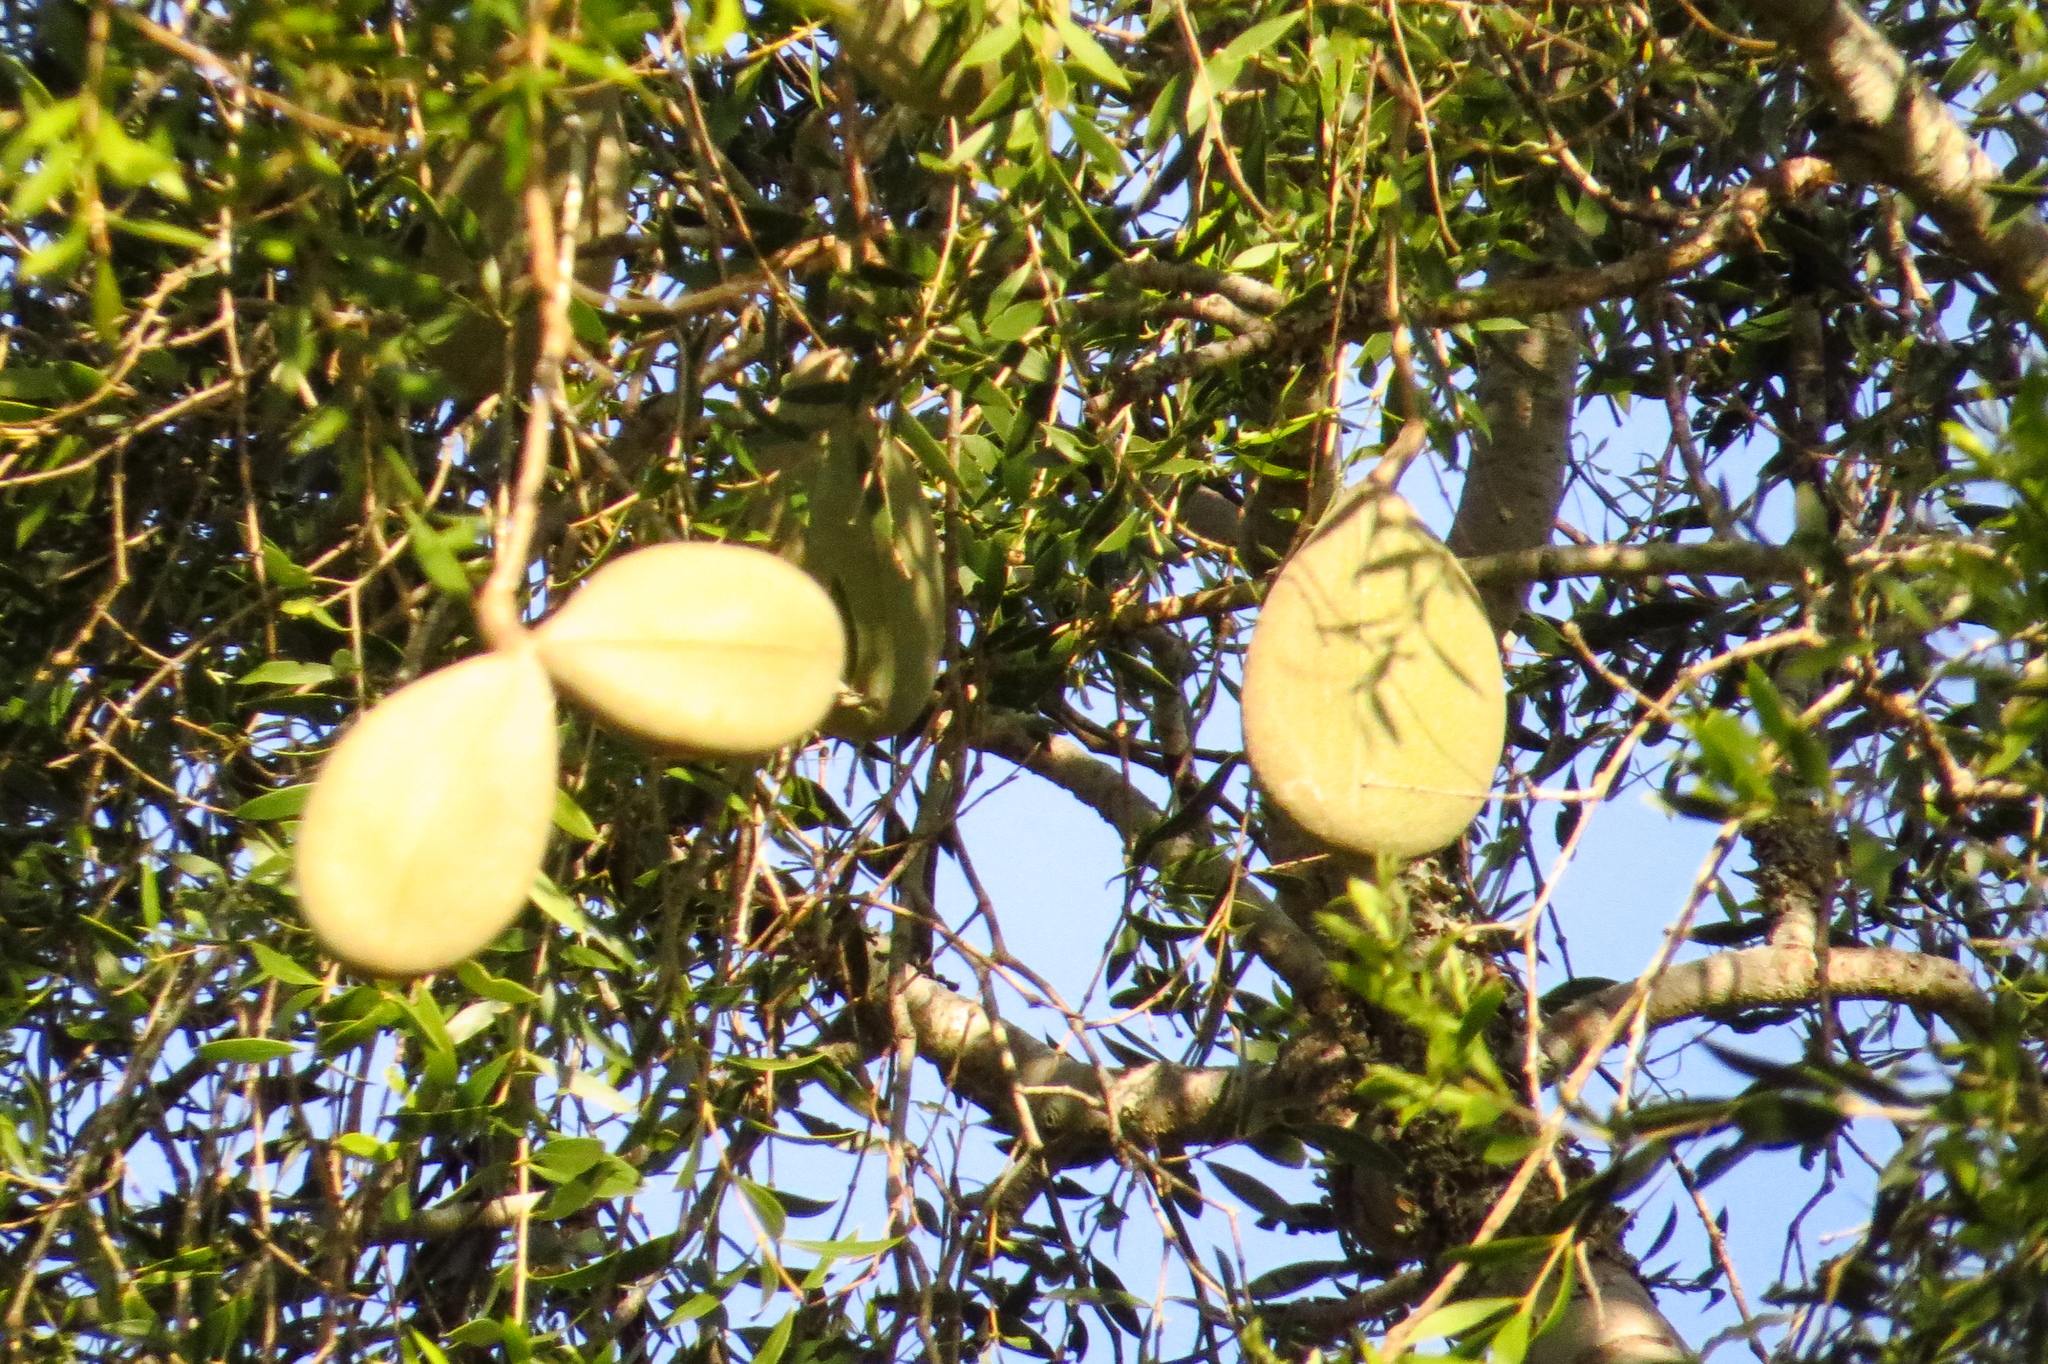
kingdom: Plantae
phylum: Tracheophyta
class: Magnoliopsida
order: Gentianales
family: Apocynaceae
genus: Aspidosperma
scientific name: Aspidosperma quebracho-blanco
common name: White quebracho
